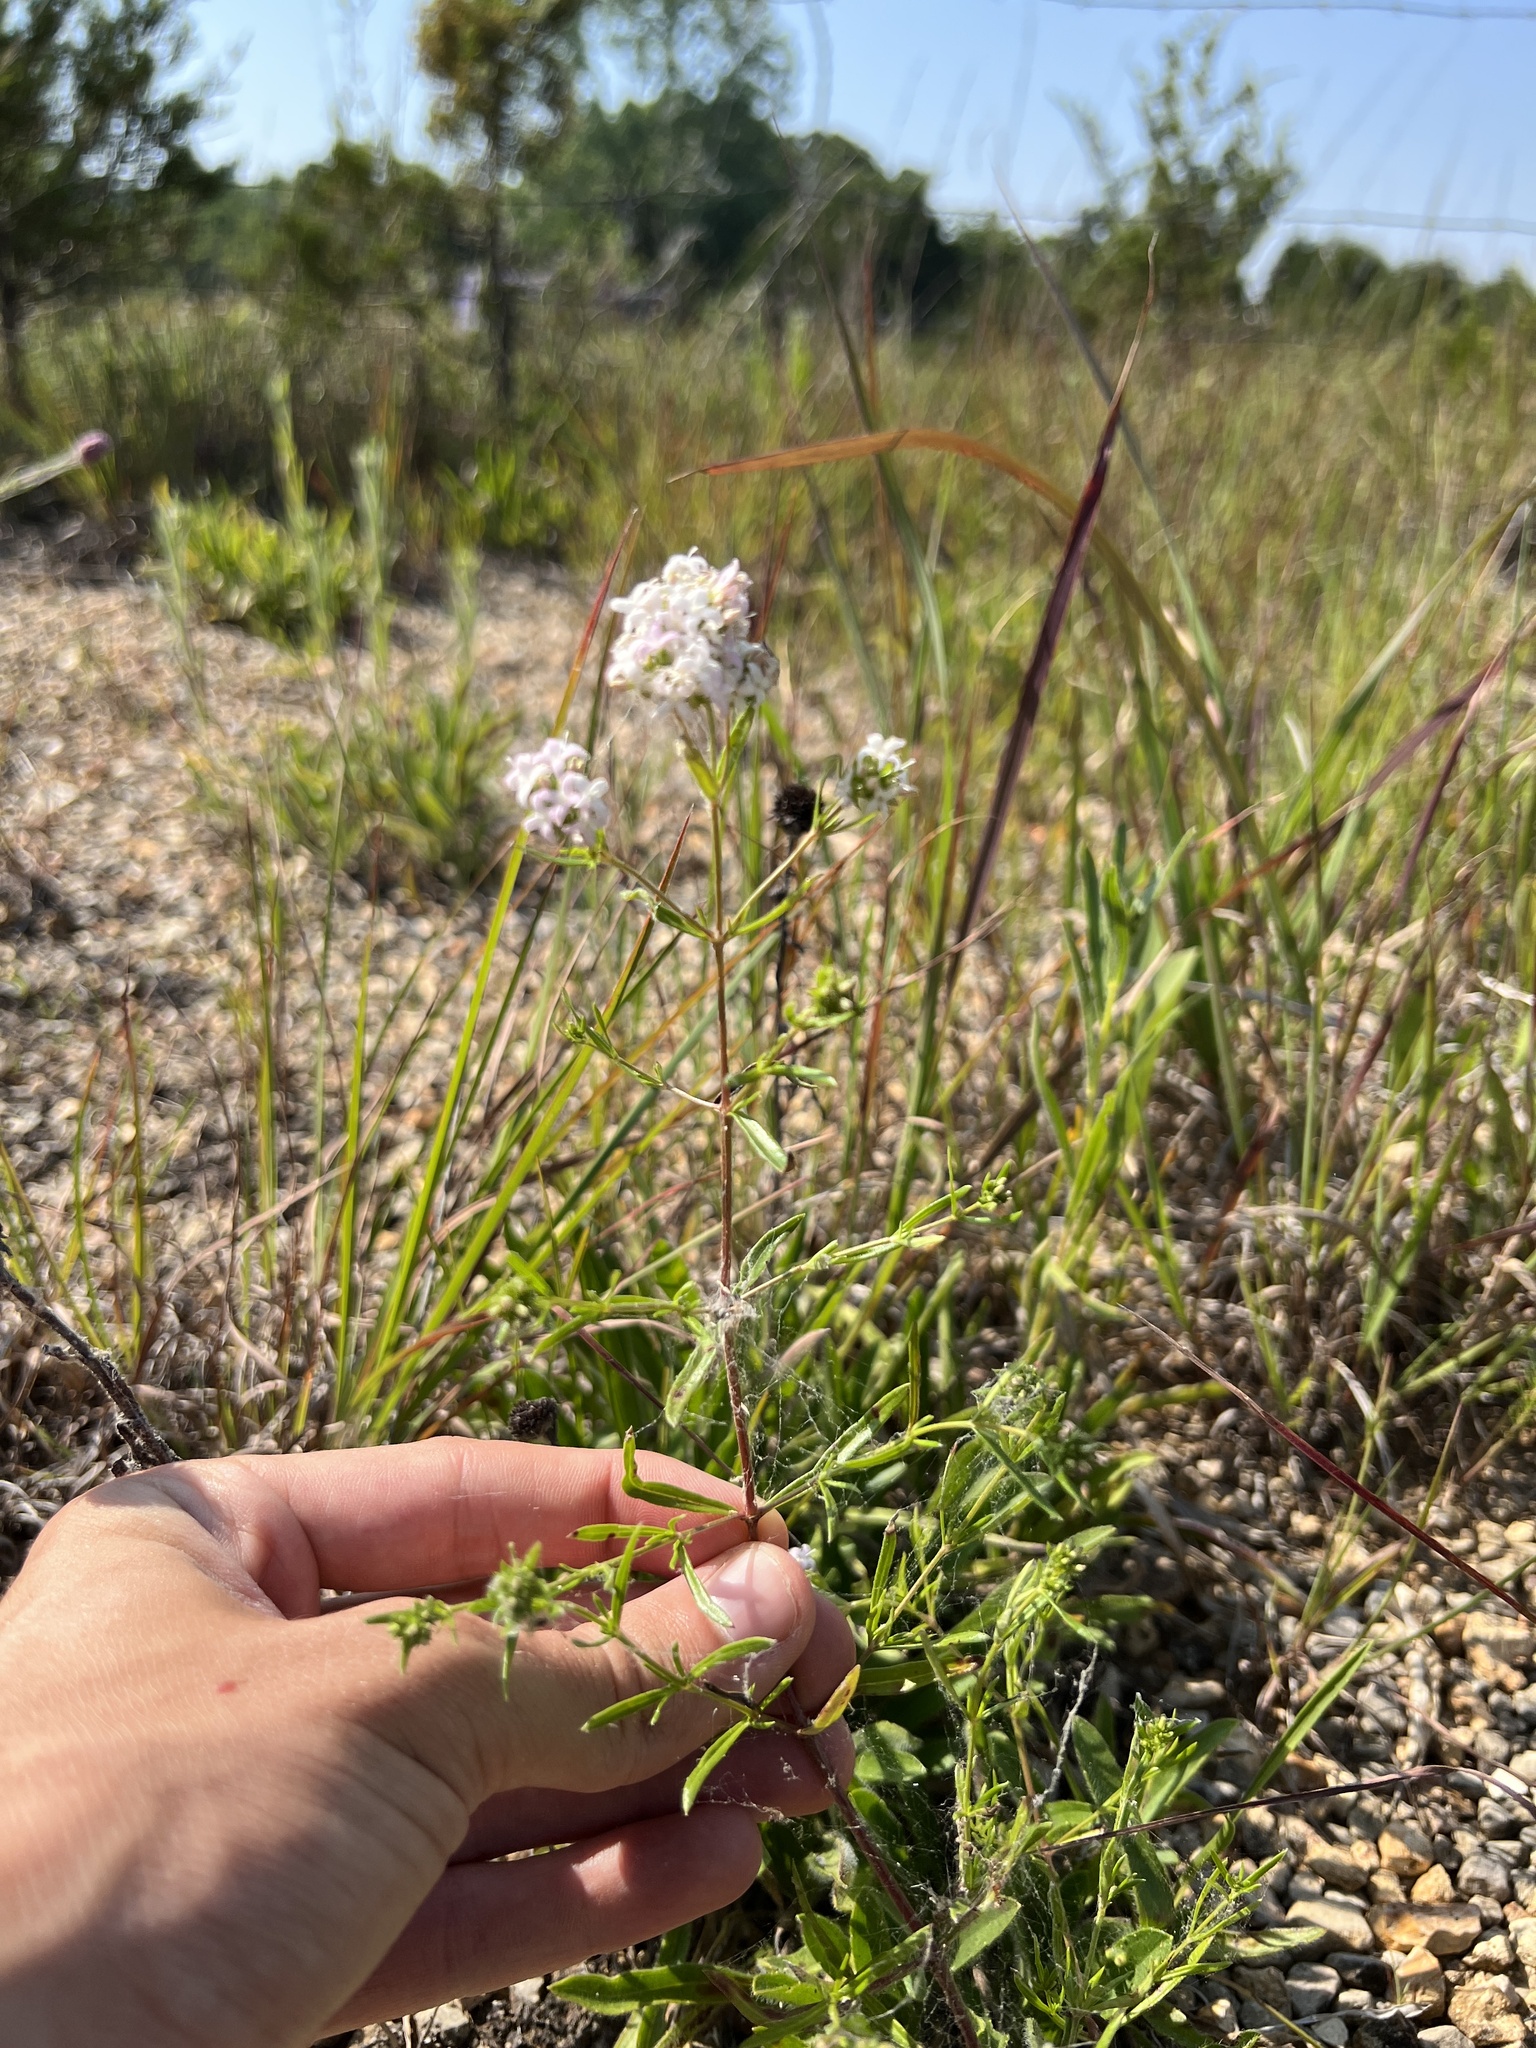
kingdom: Plantae
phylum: Tracheophyta
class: Magnoliopsida
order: Gentianales
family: Rubiaceae
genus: Stenaria
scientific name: Stenaria nigricans
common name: Diamondflowers
